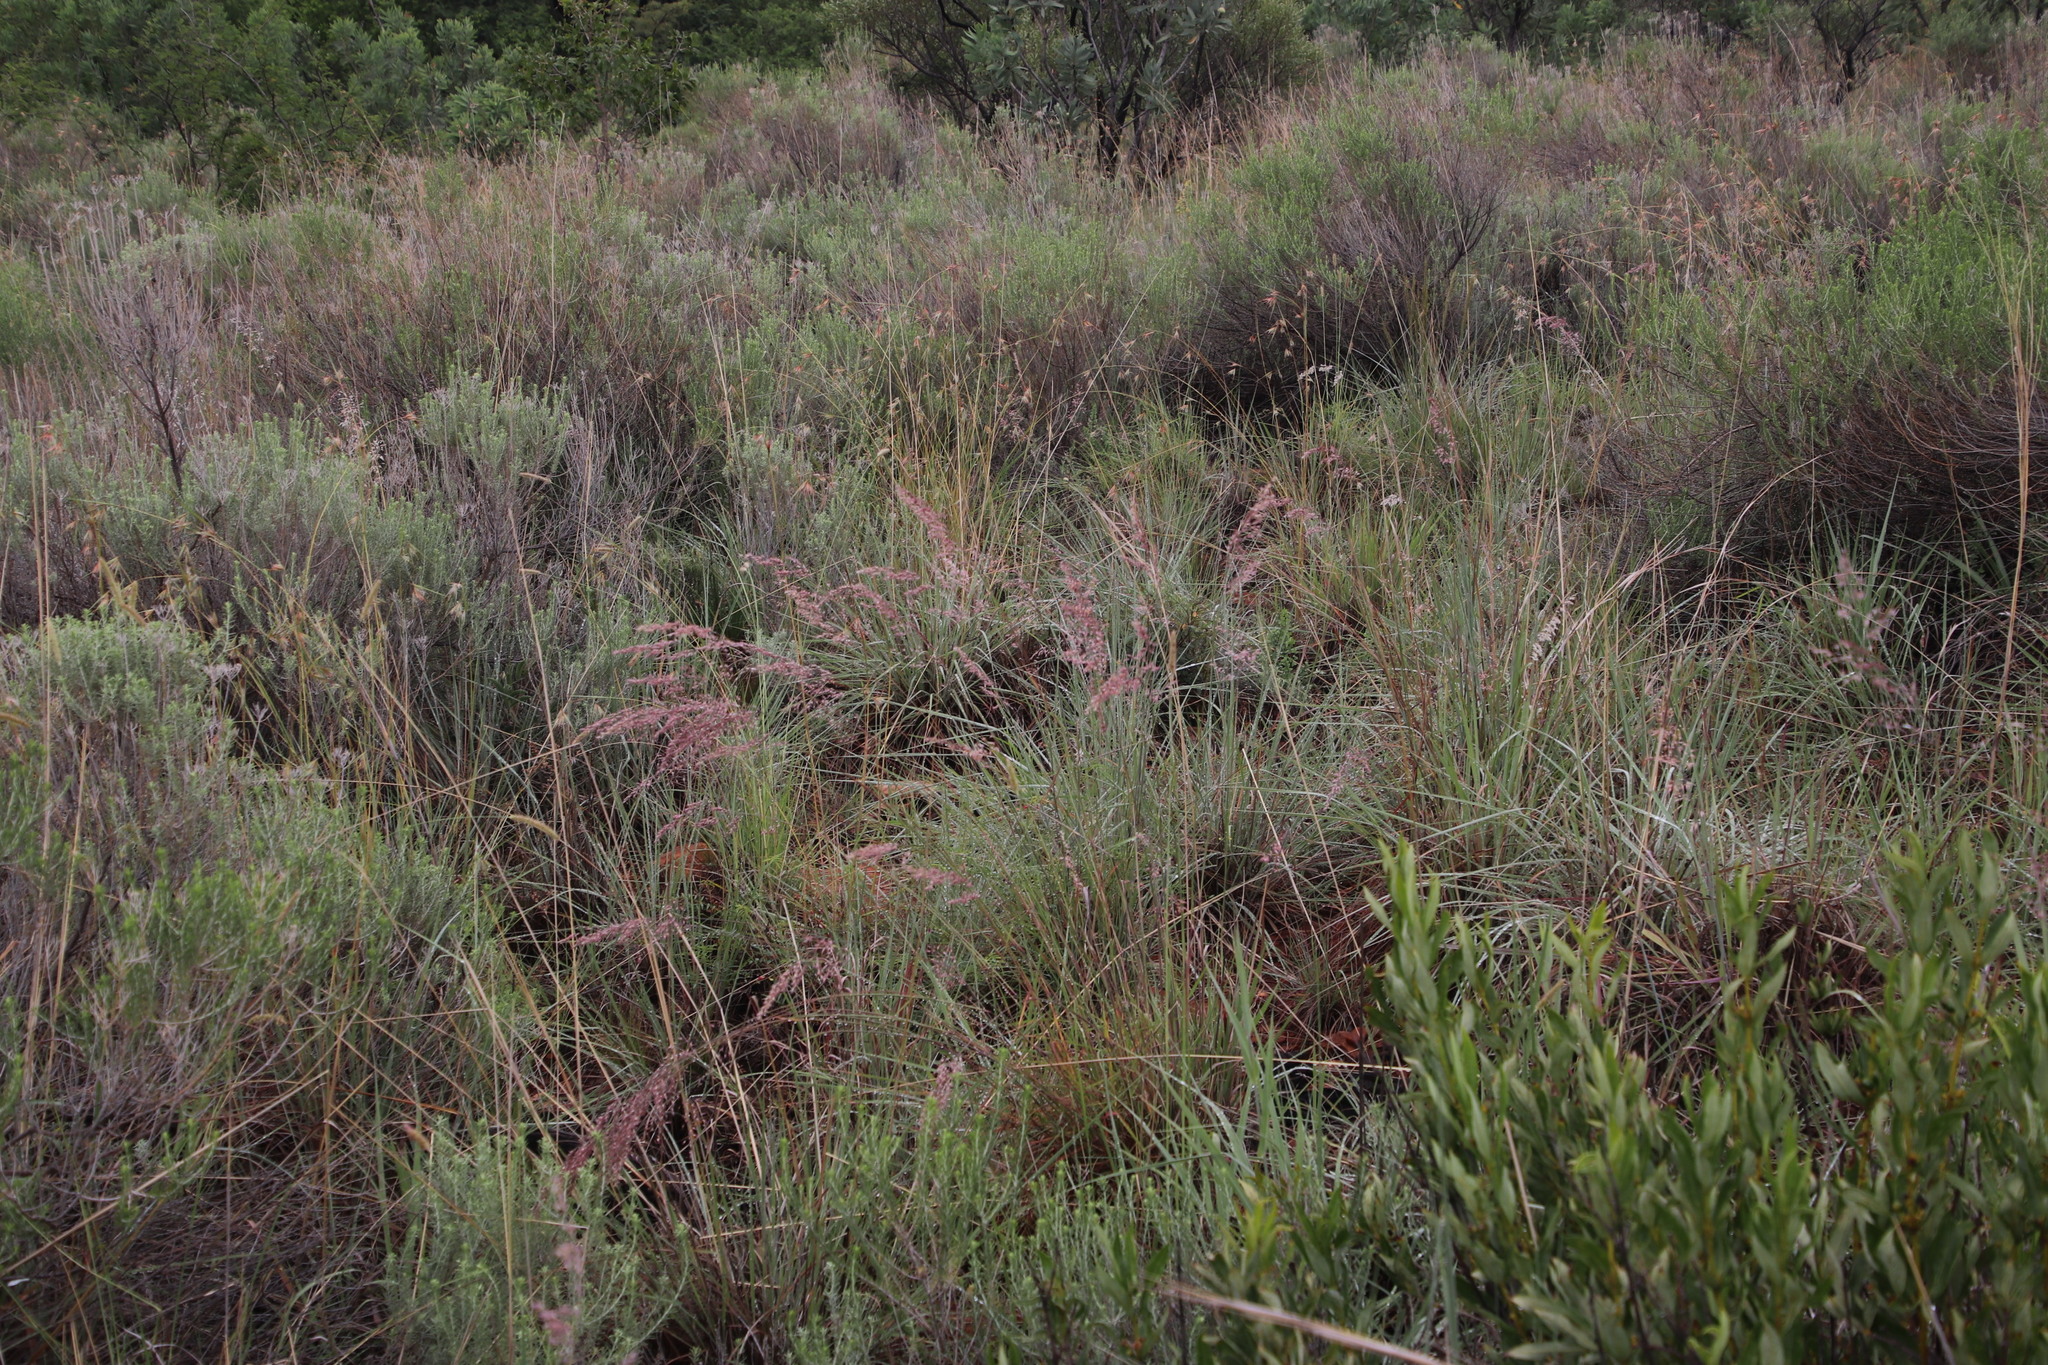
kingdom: Plantae
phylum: Tracheophyta
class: Liliopsida
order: Poales
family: Poaceae
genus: Melinis
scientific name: Melinis nerviglumis
